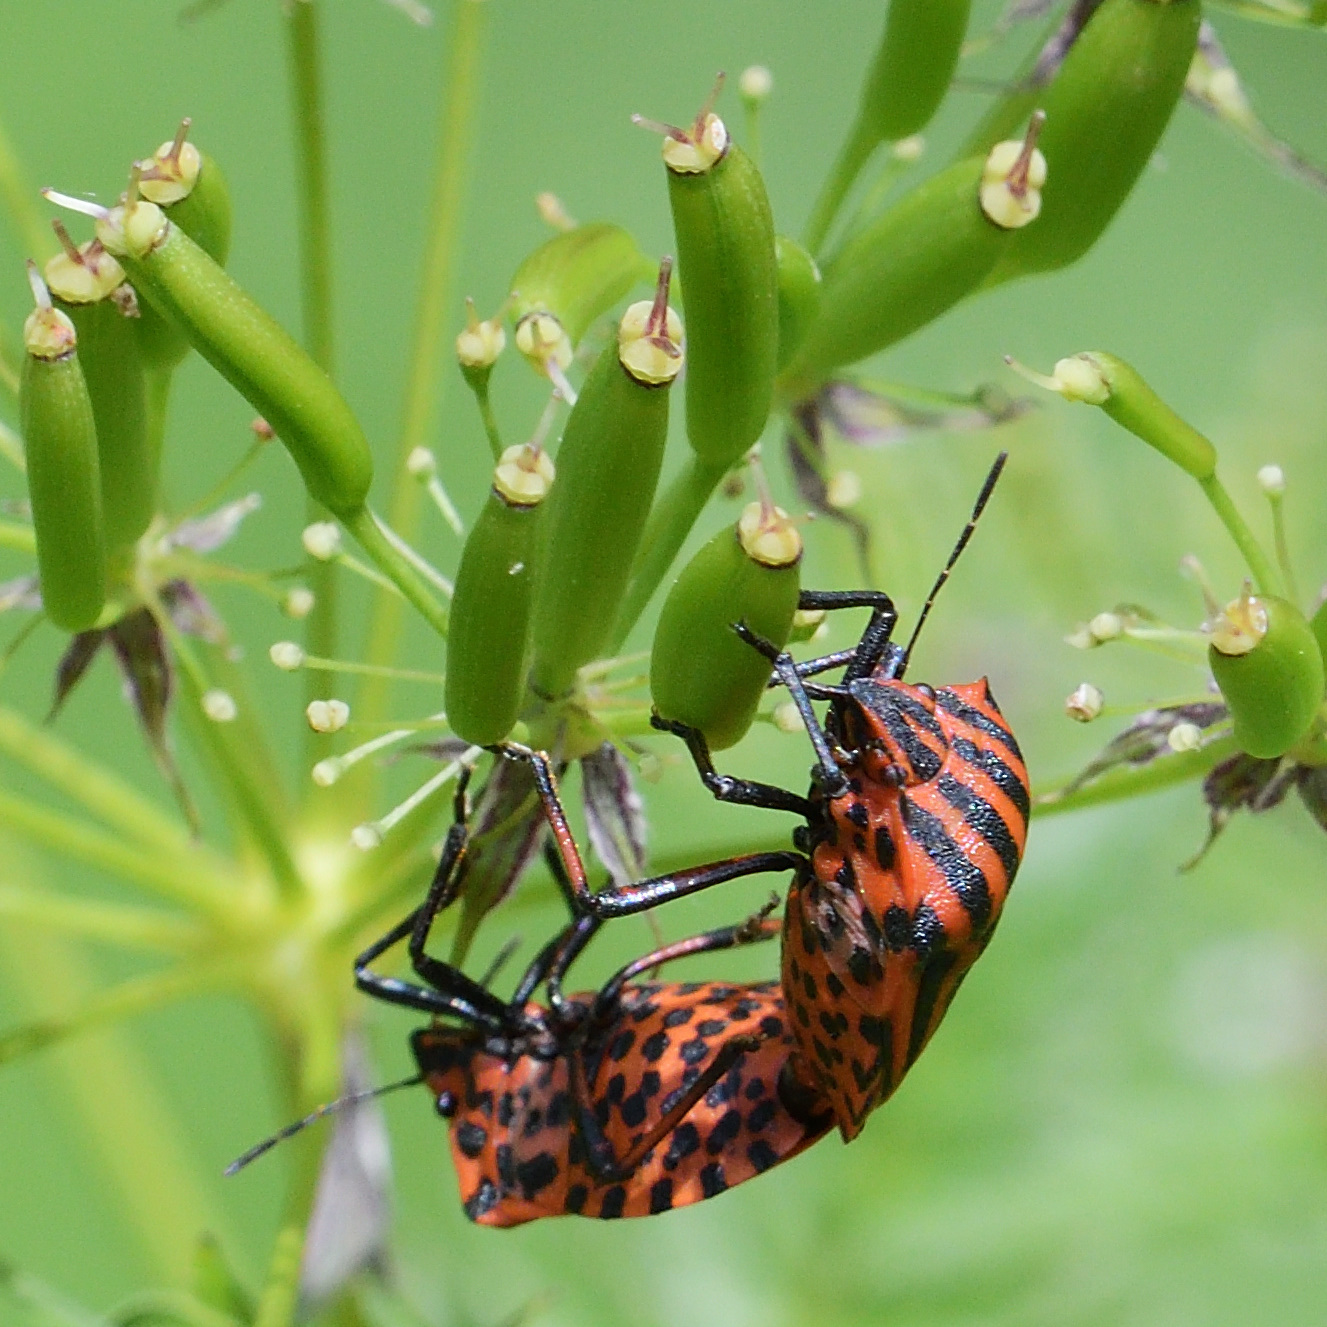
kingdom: Animalia
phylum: Arthropoda
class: Insecta
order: Hemiptera
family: Pentatomidae
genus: Graphosoma
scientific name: Graphosoma italicum
